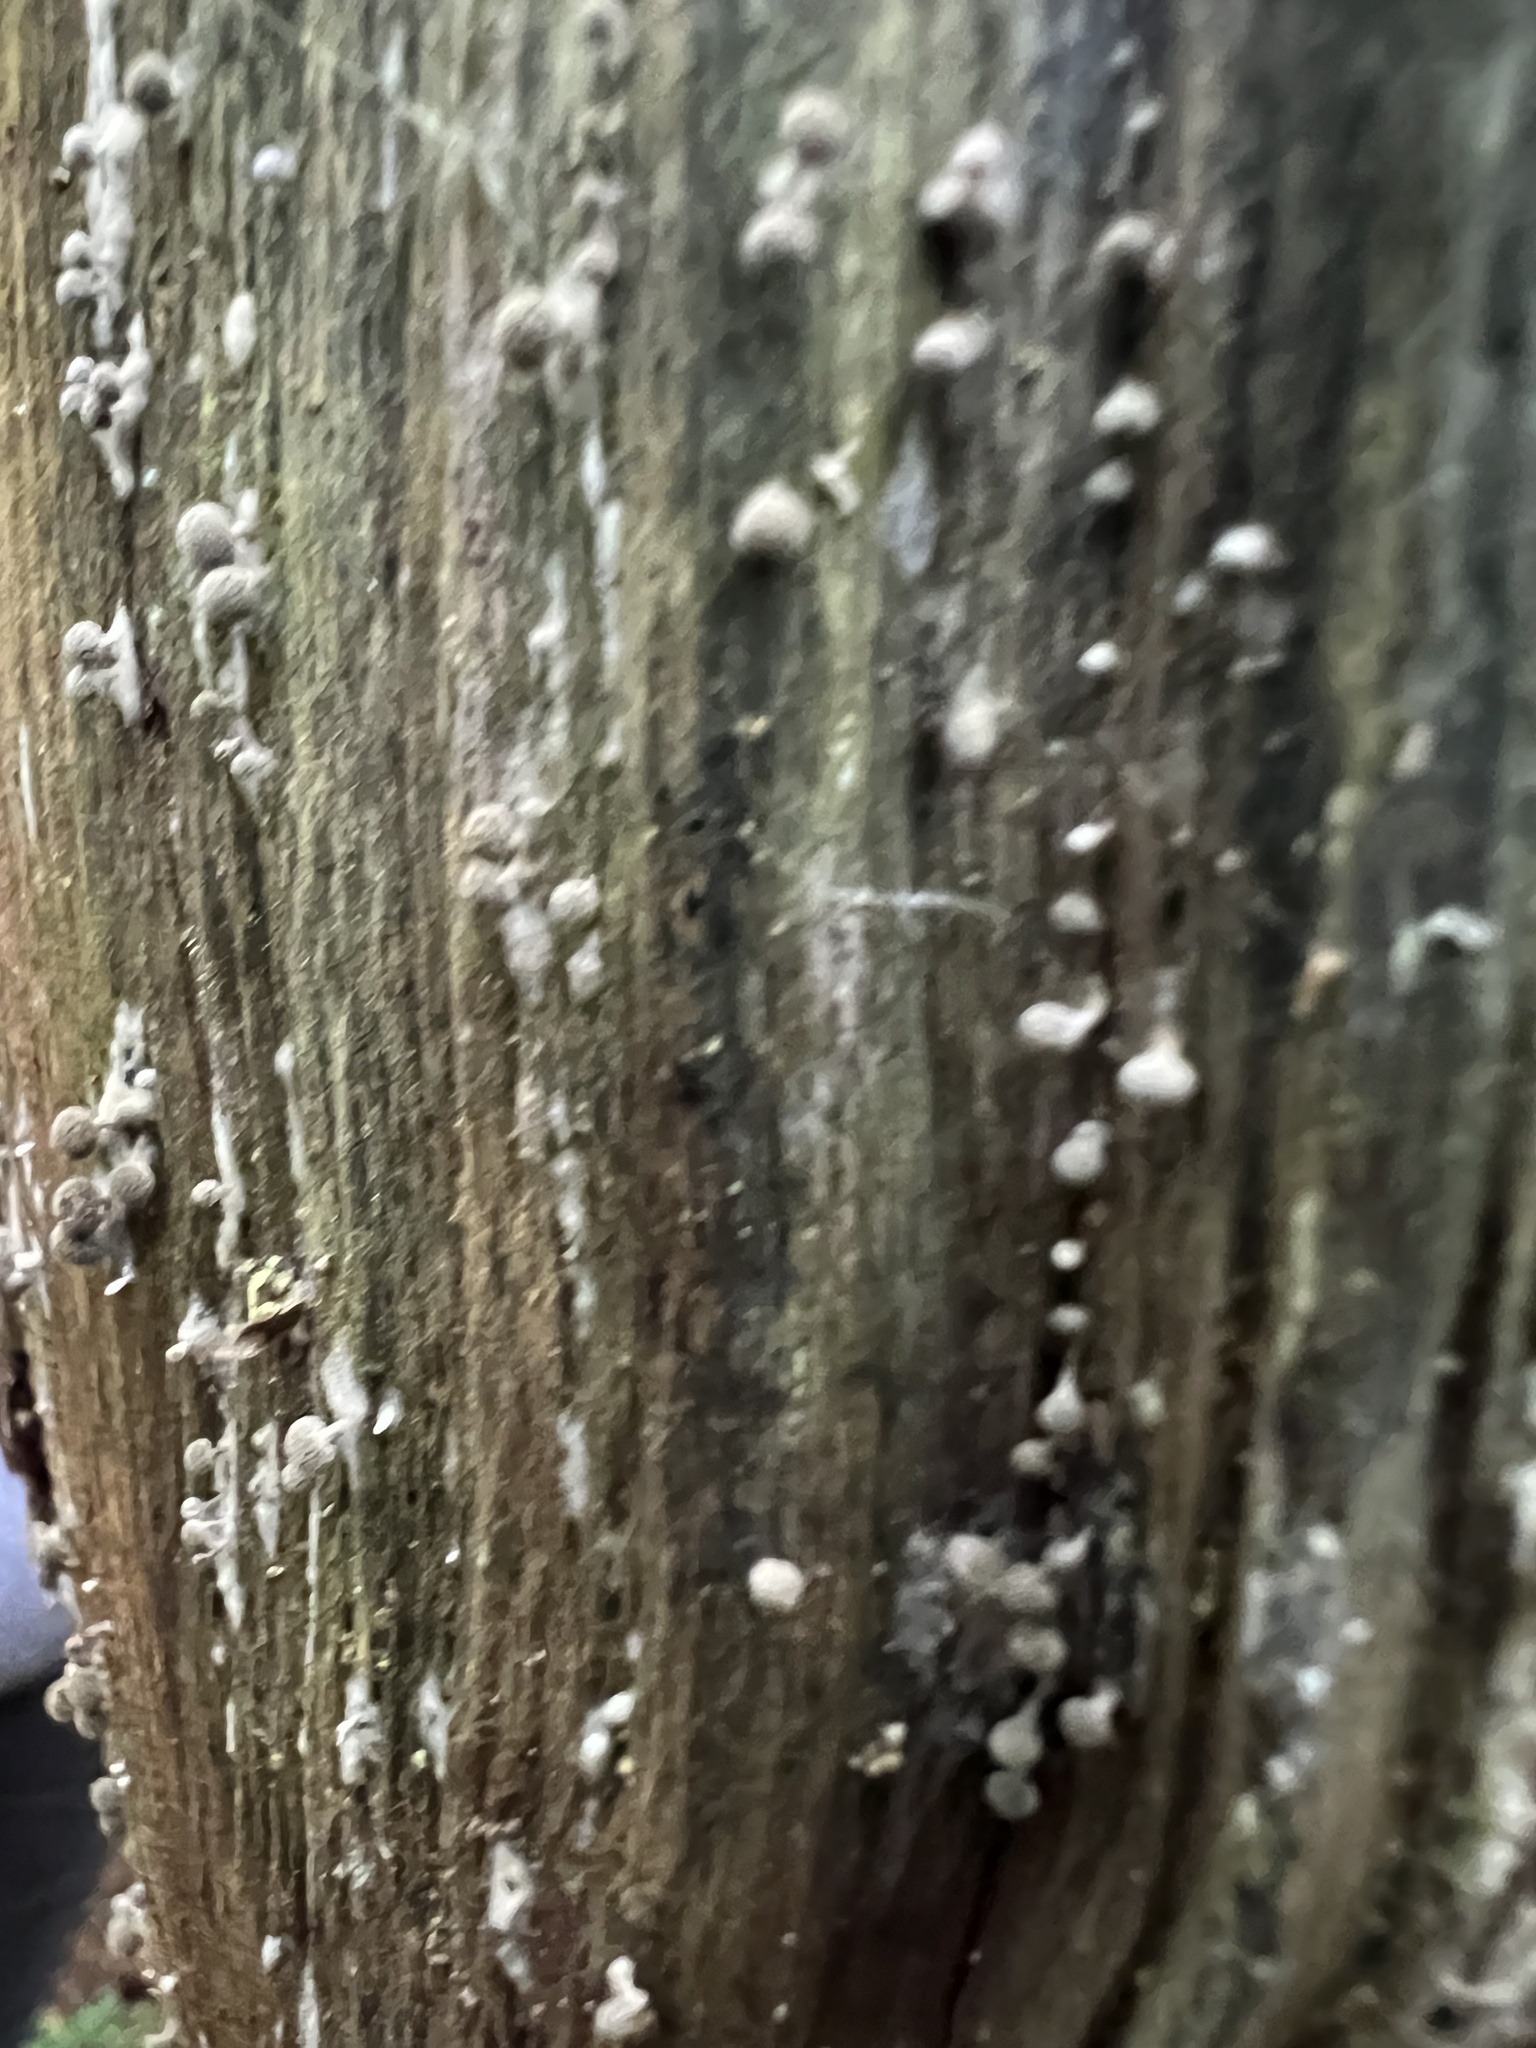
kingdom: Fungi
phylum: Basidiomycota
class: Atractiellomycetes
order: Atractiellales
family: Phleogenaceae
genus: Phleogena
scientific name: Phleogena faginea
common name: Fenugreek stalkball
